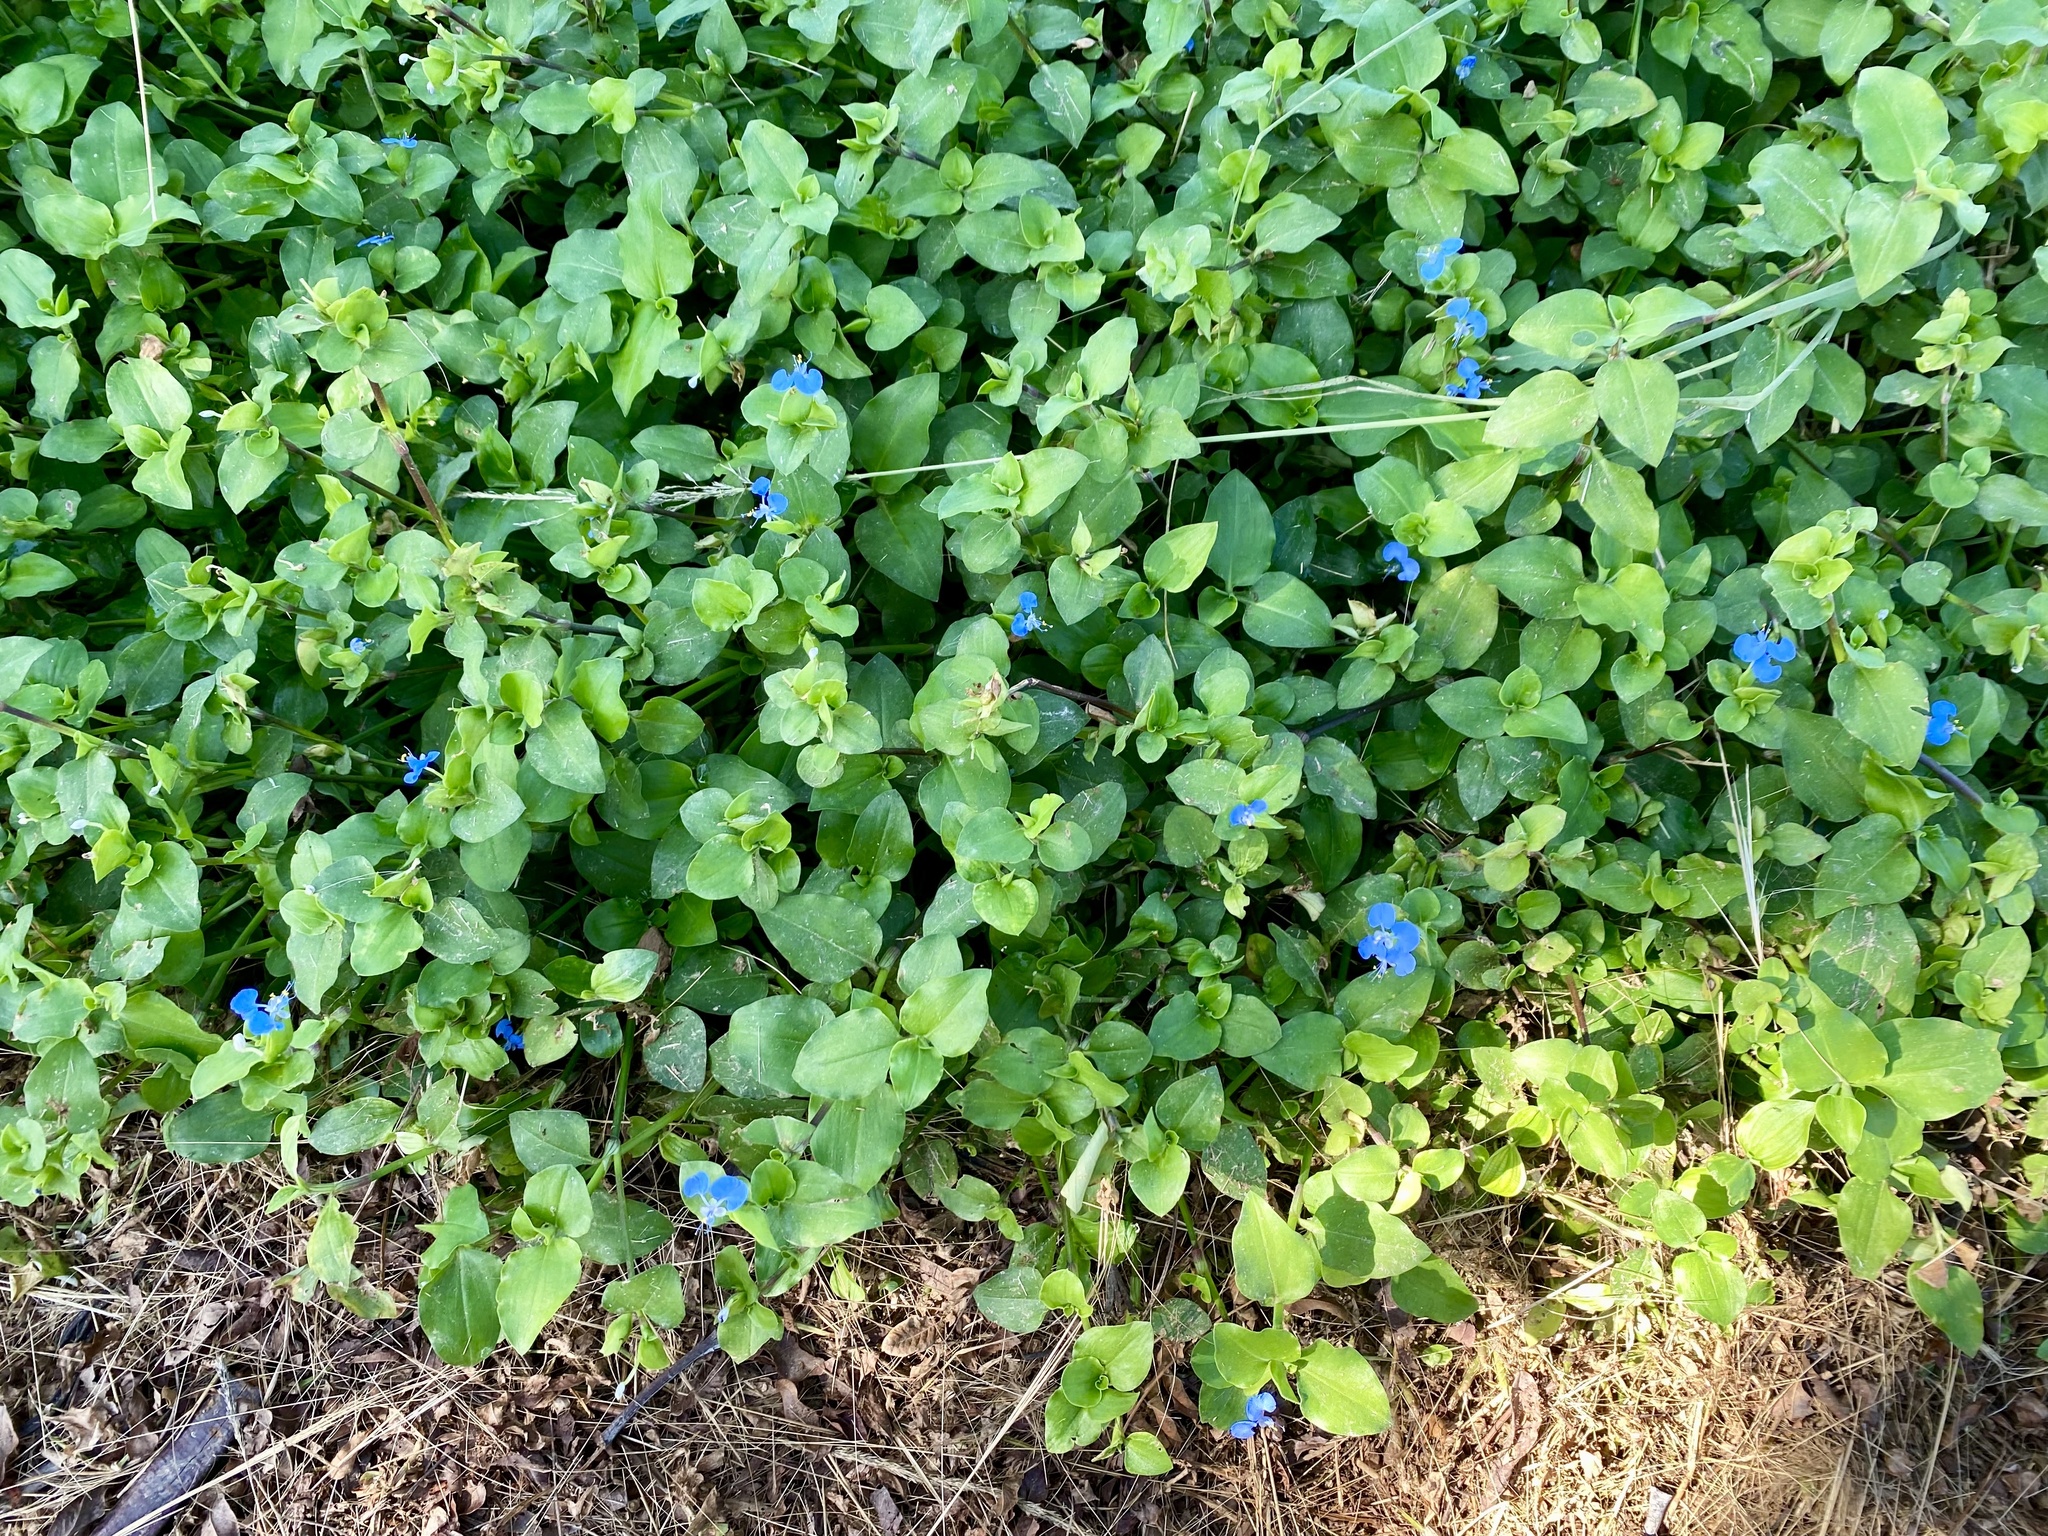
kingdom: Plantae
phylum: Tracheophyta
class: Liliopsida
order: Commelinales
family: Commelinaceae
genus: Commelina
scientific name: Commelina benghalensis
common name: Jio
